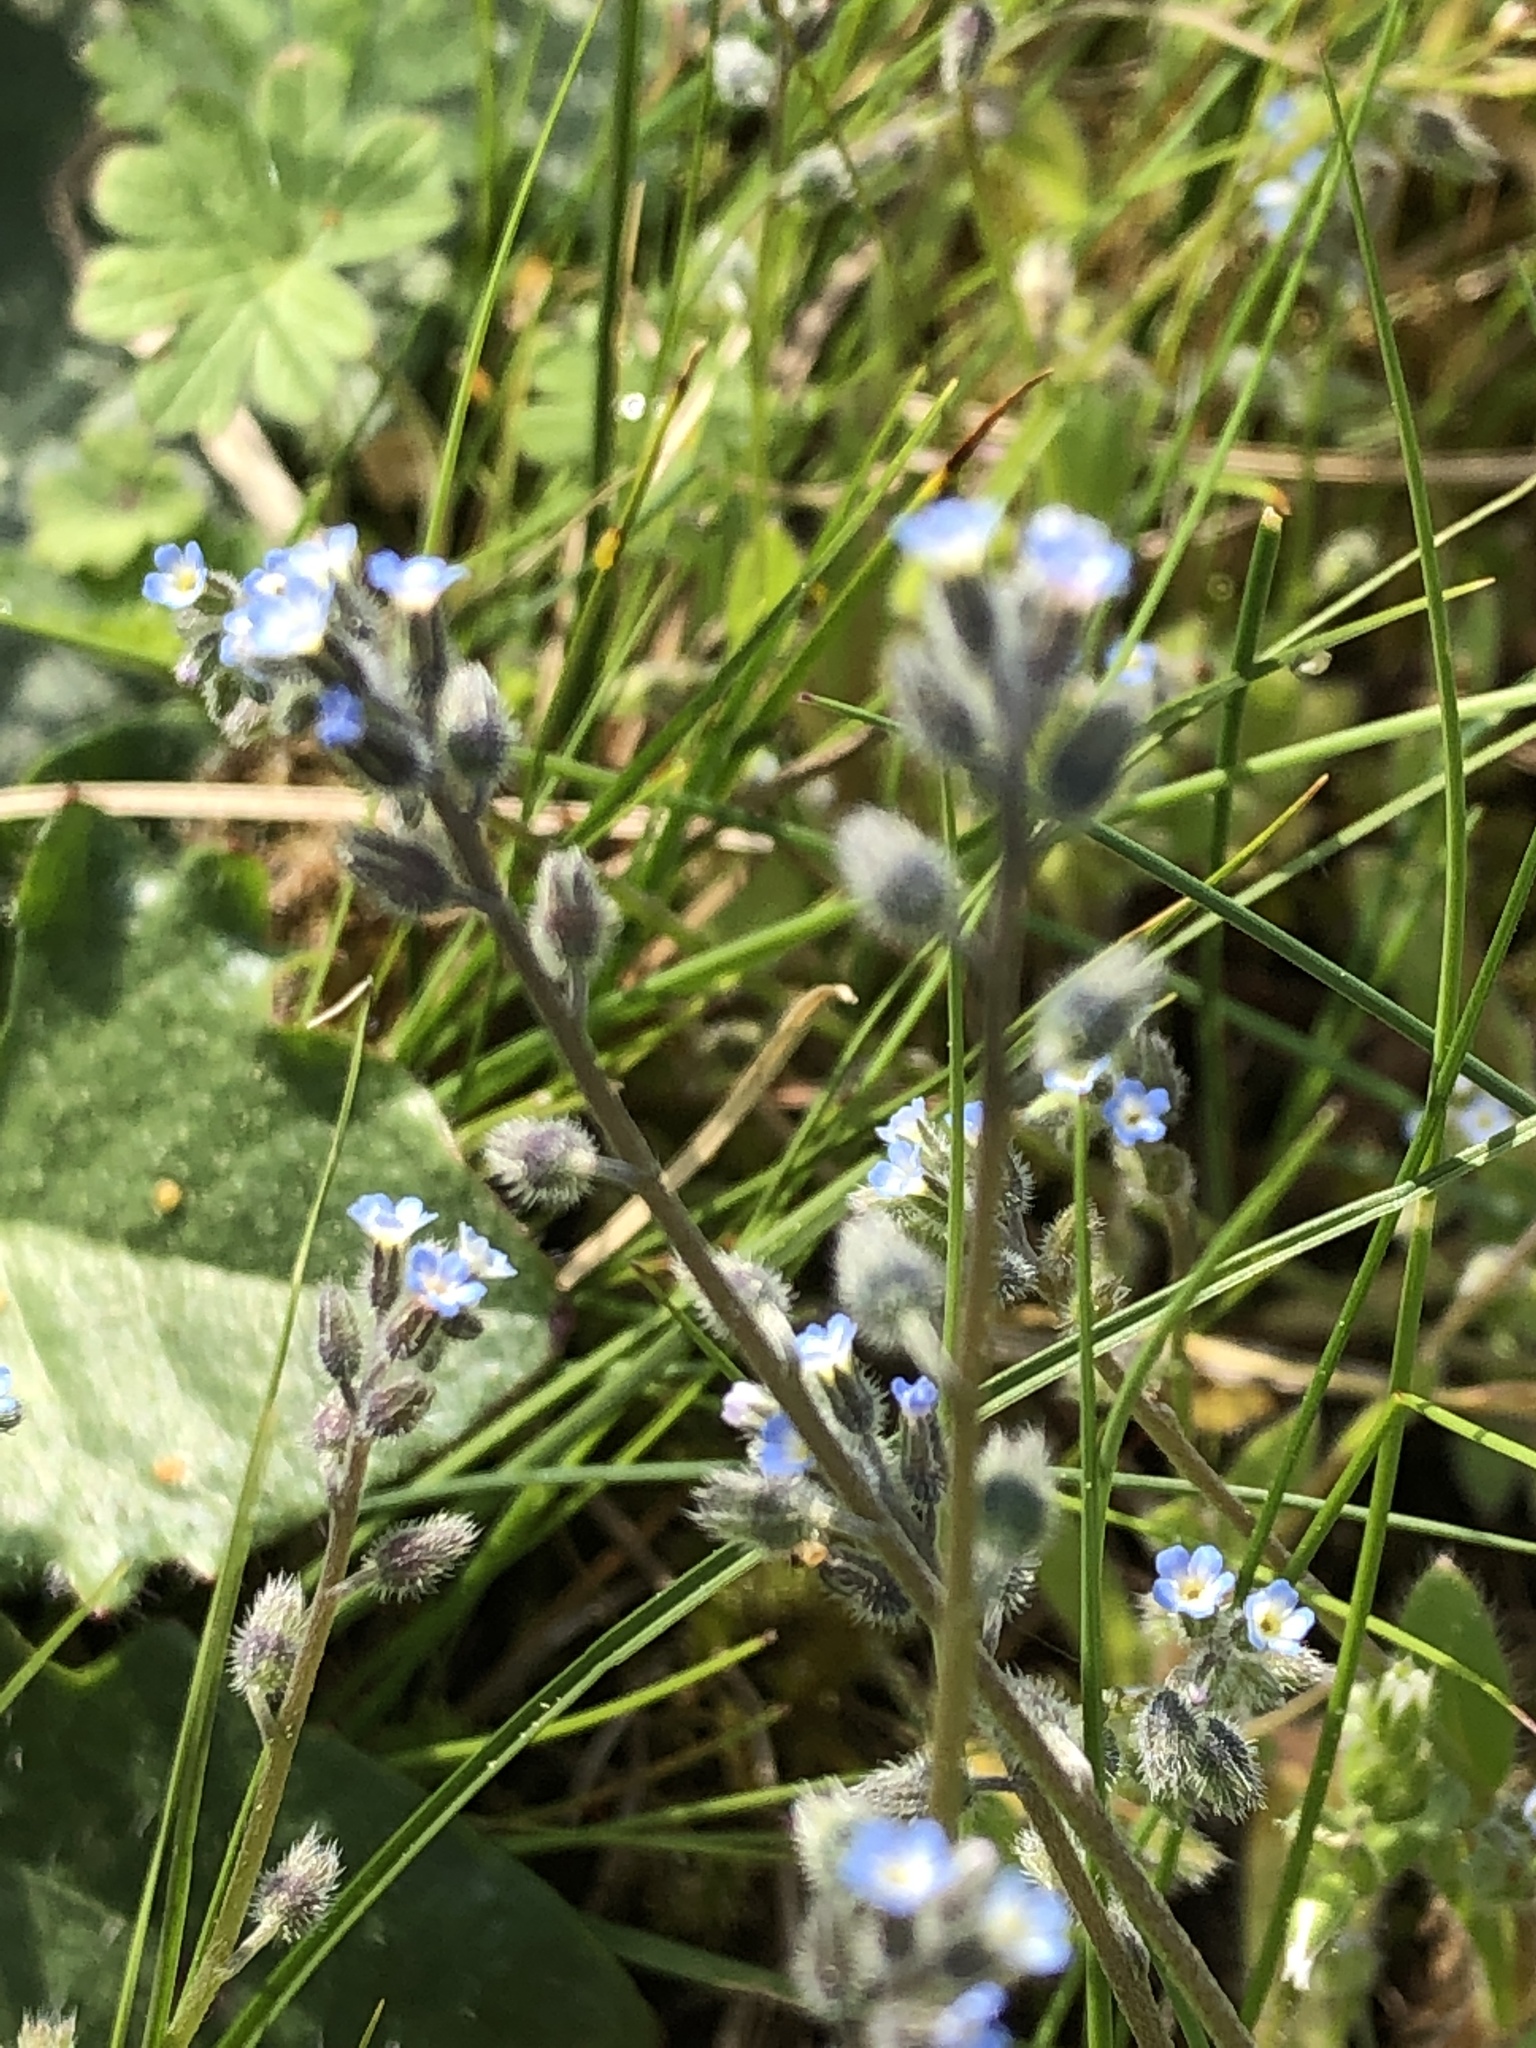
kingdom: Plantae
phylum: Tracheophyta
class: Magnoliopsida
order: Boraginales
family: Boraginaceae
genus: Myosotis
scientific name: Myosotis arvensis
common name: Field forget-me-not
